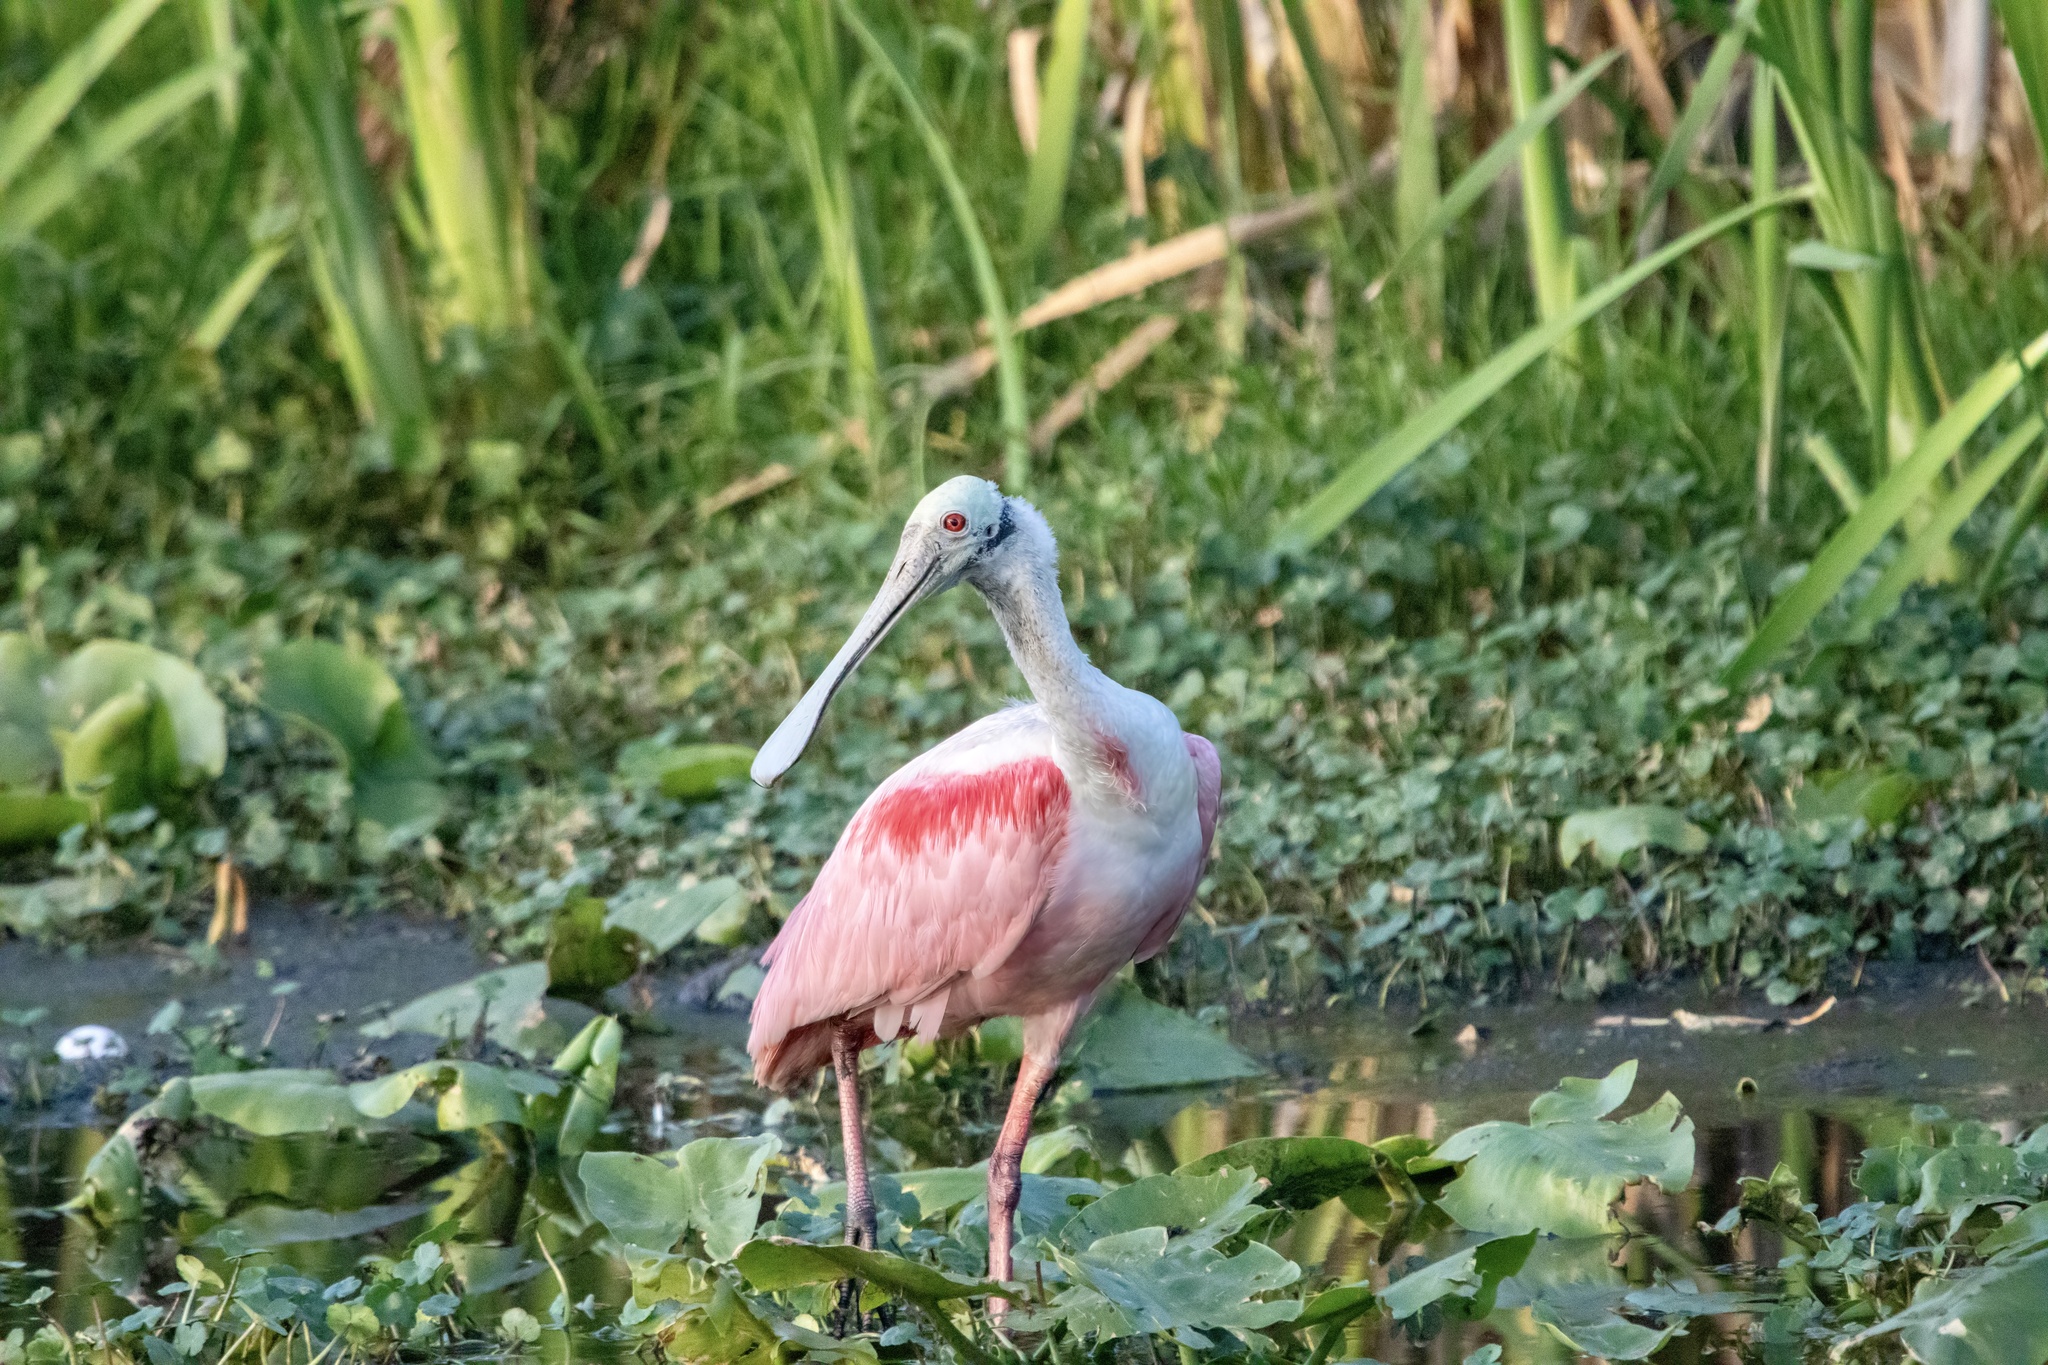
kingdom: Animalia
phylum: Chordata
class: Aves
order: Pelecaniformes
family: Threskiornithidae
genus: Platalea
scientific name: Platalea ajaja
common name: Roseate spoonbill
